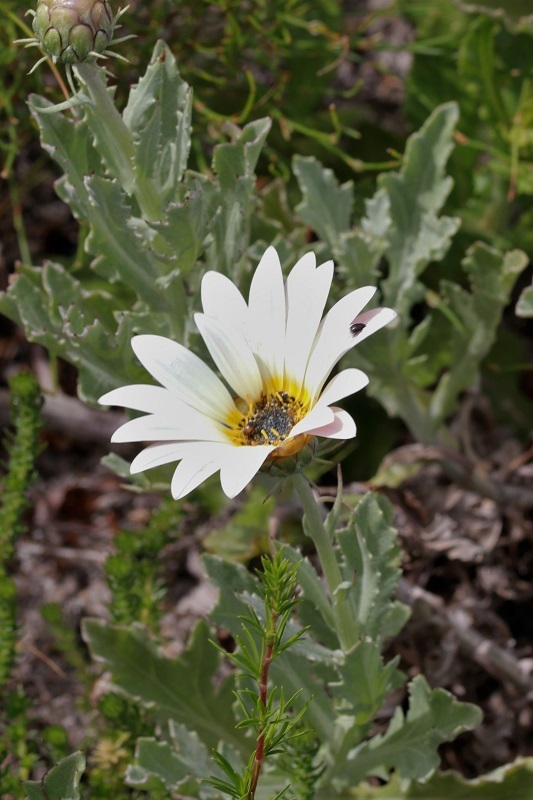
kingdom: Plantae
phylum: Tracheophyta
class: Magnoliopsida
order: Asterales
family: Asteraceae
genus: Arctotis
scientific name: Arctotis stoechadifolia
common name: African daisy
